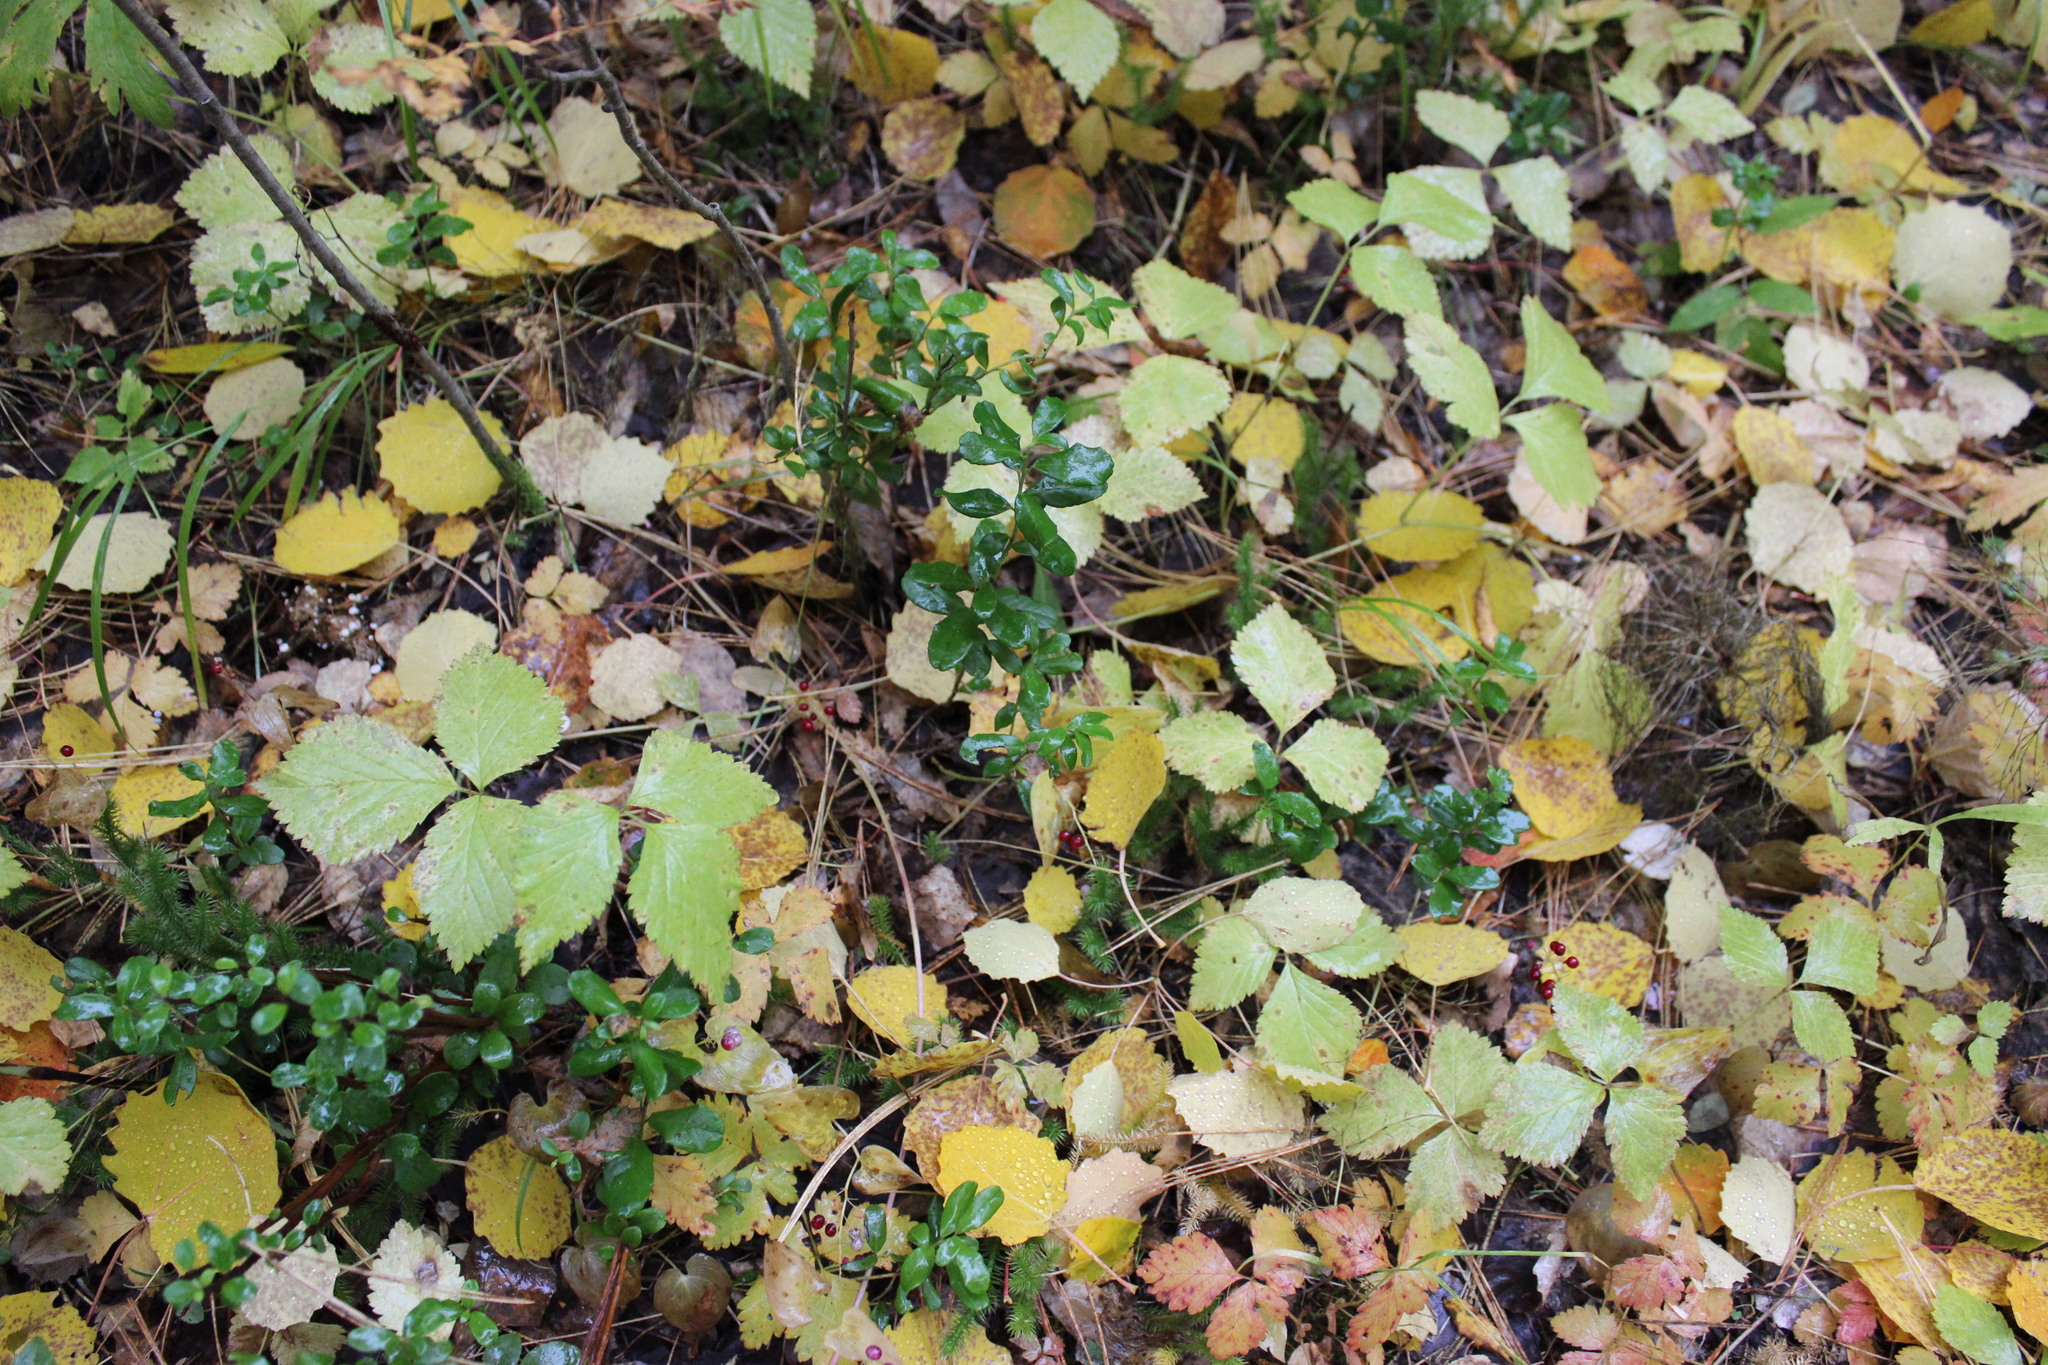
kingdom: Plantae
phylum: Tracheophyta
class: Magnoliopsida
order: Rosales
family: Rosaceae
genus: Rubus
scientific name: Rubus saxatilis
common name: Stone bramble
